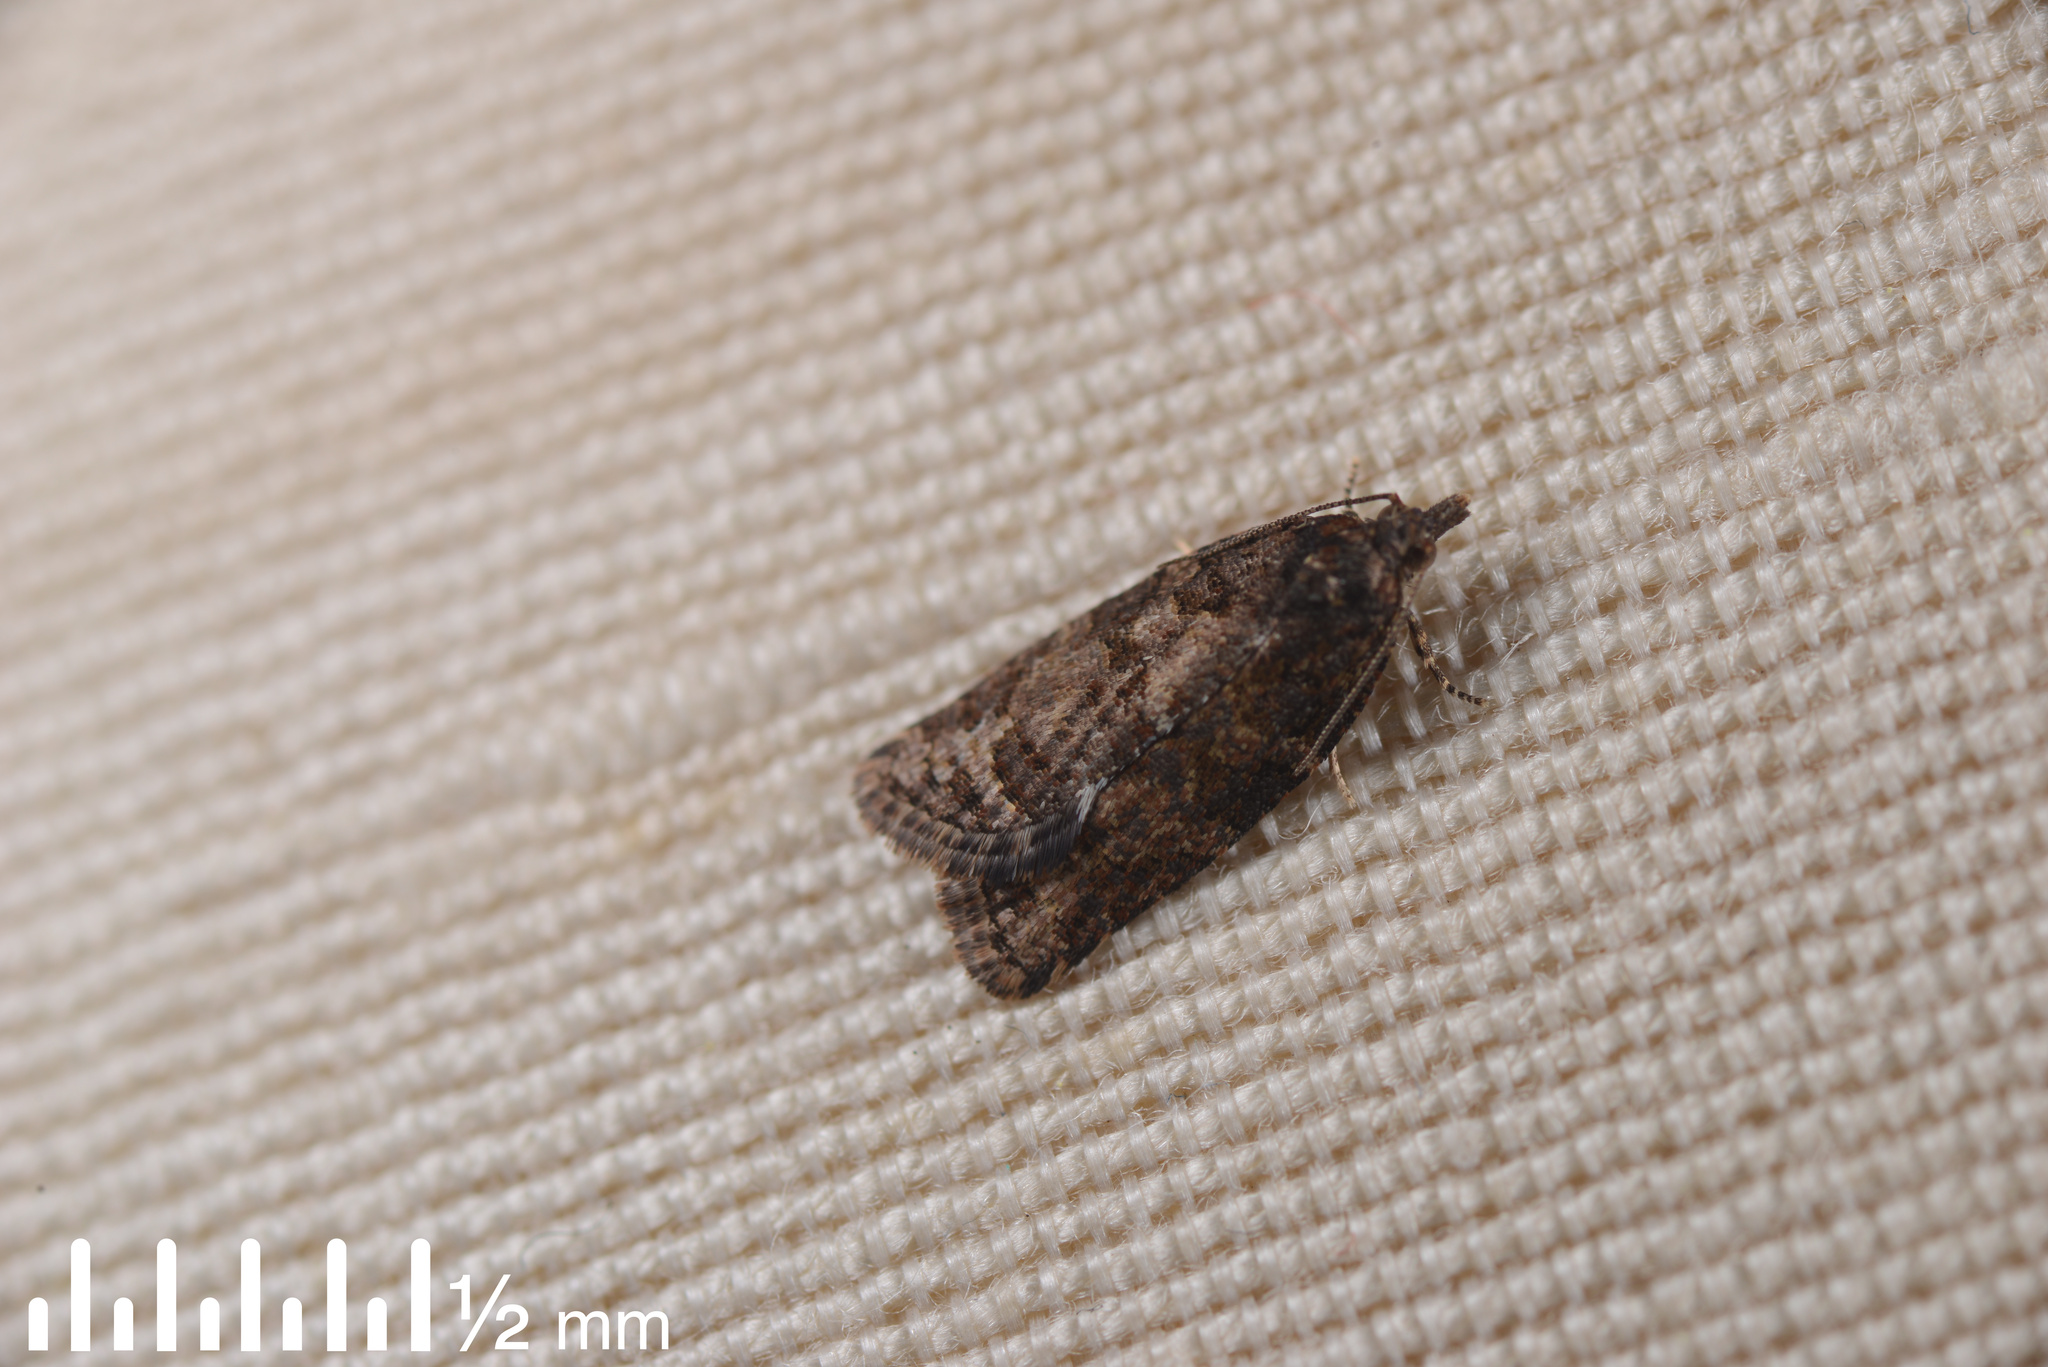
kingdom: Animalia
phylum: Arthropoda
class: Insecta
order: Lepidoptera
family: Tortricidae
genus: Capua
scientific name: Capua intractana
